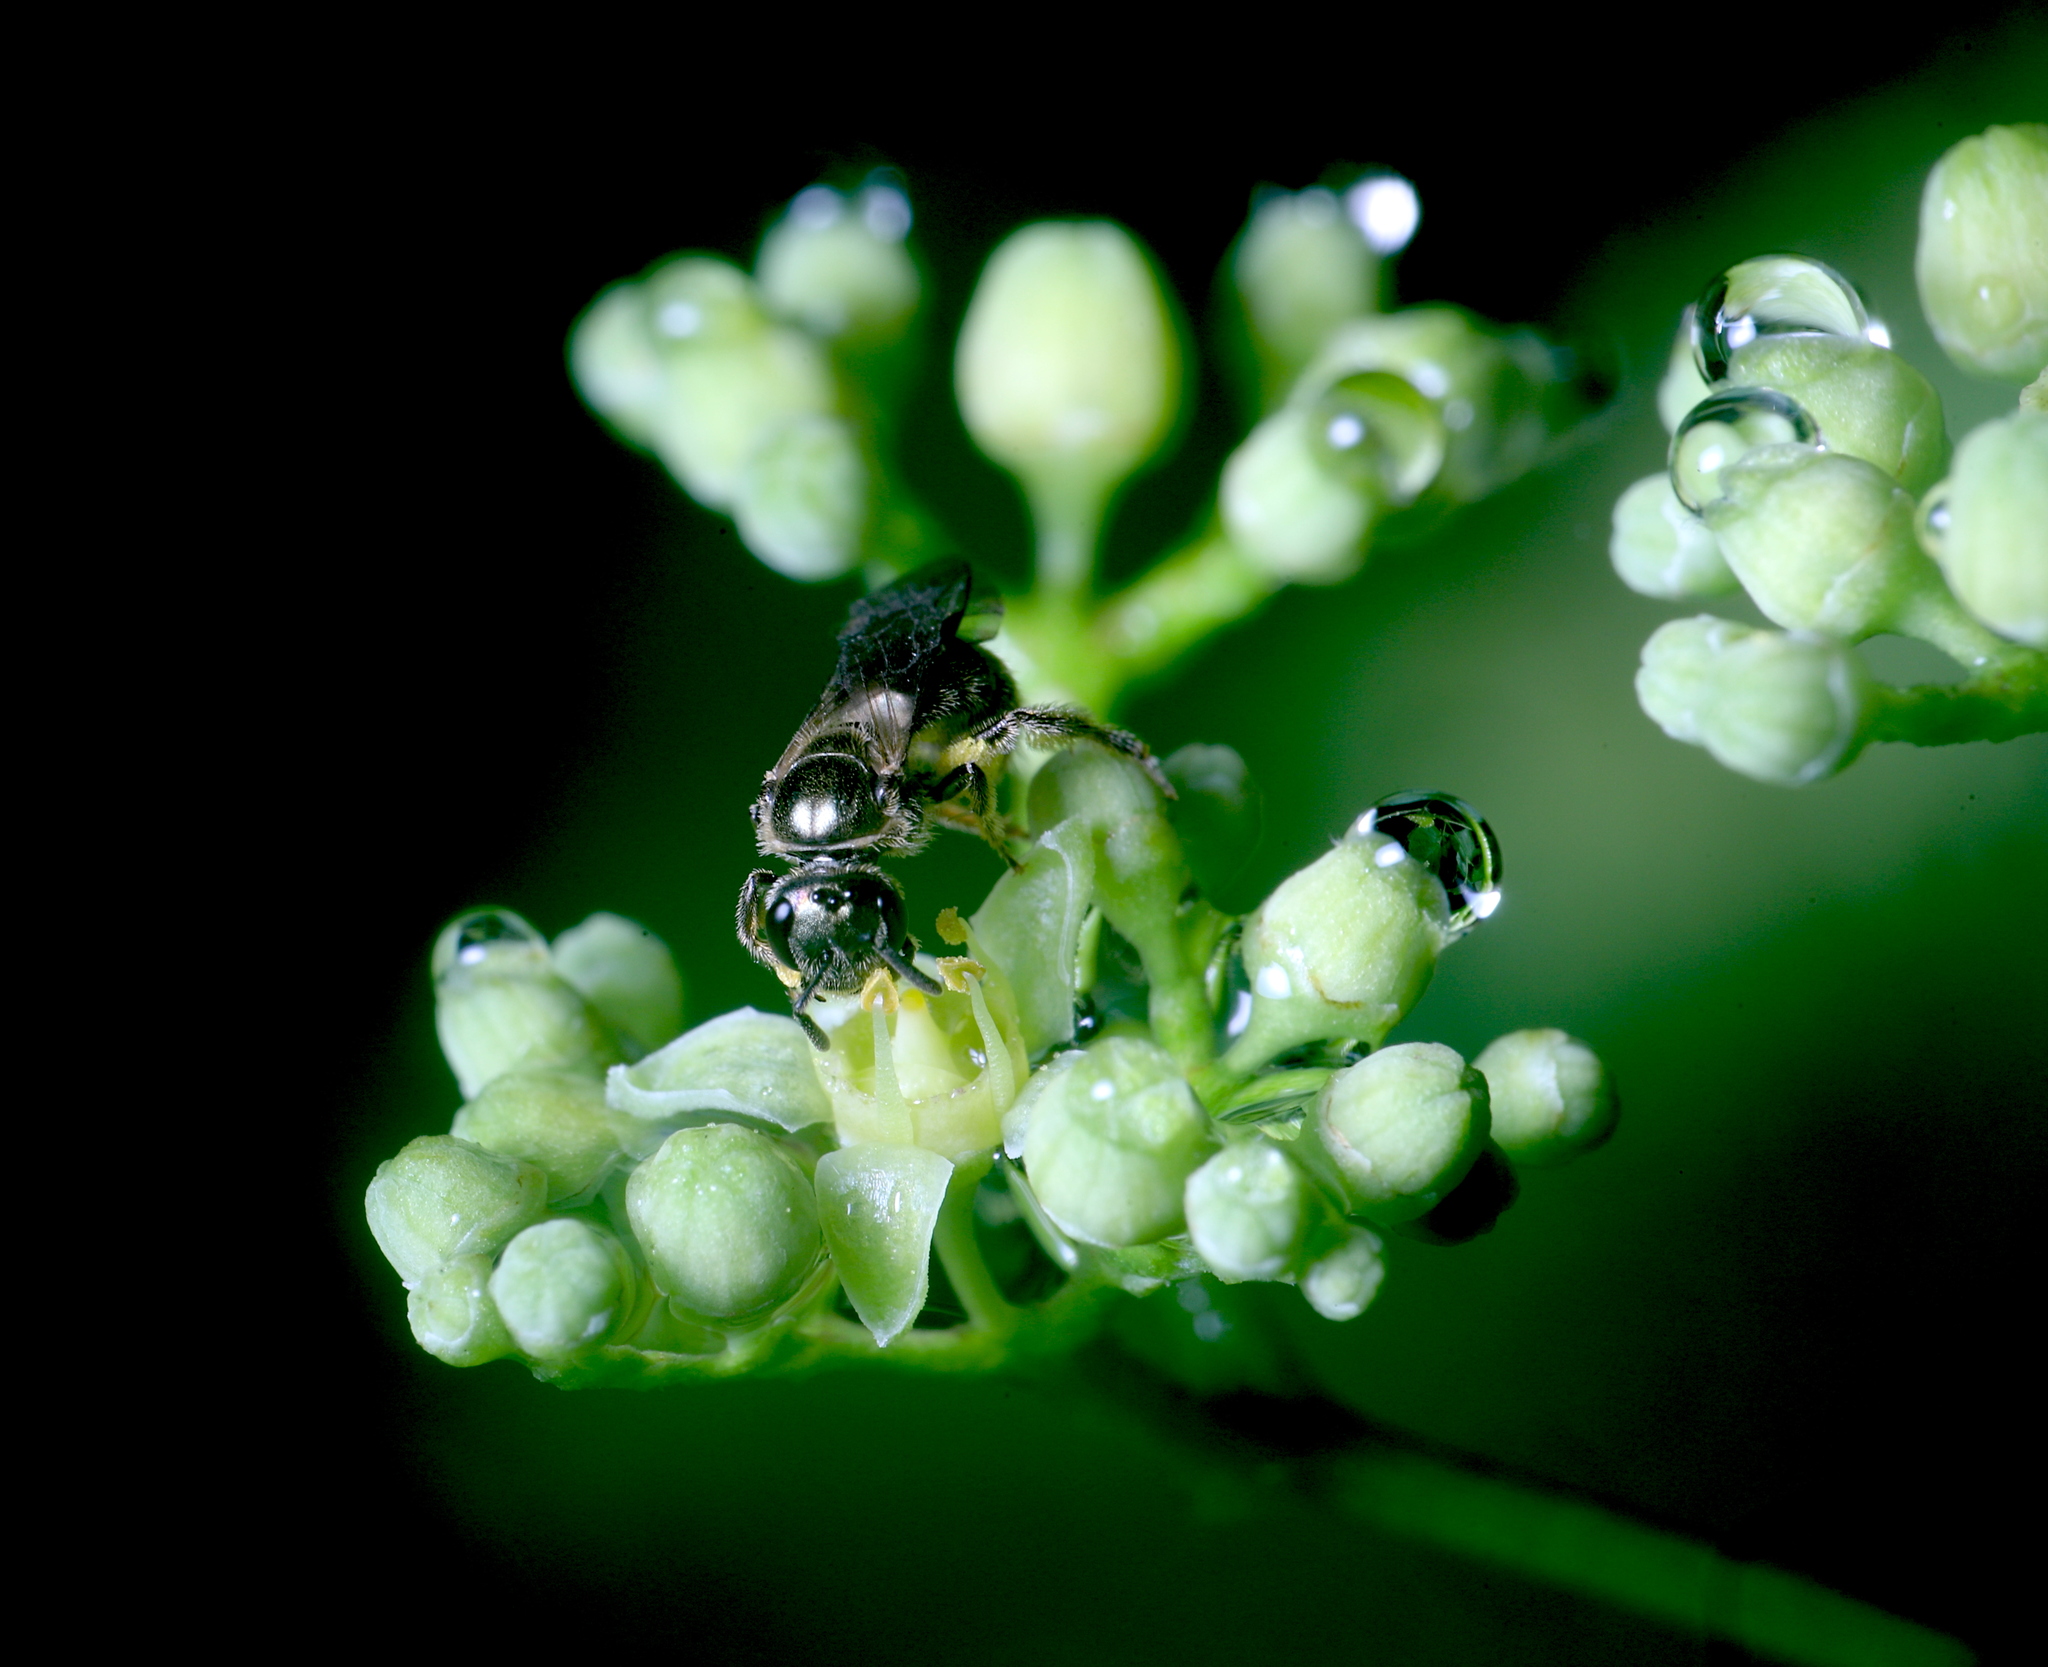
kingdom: Animalia
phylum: Arthropoda
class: Insecta
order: Hymenoptera
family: Halictidae
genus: Dialictus
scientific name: Dialictus
